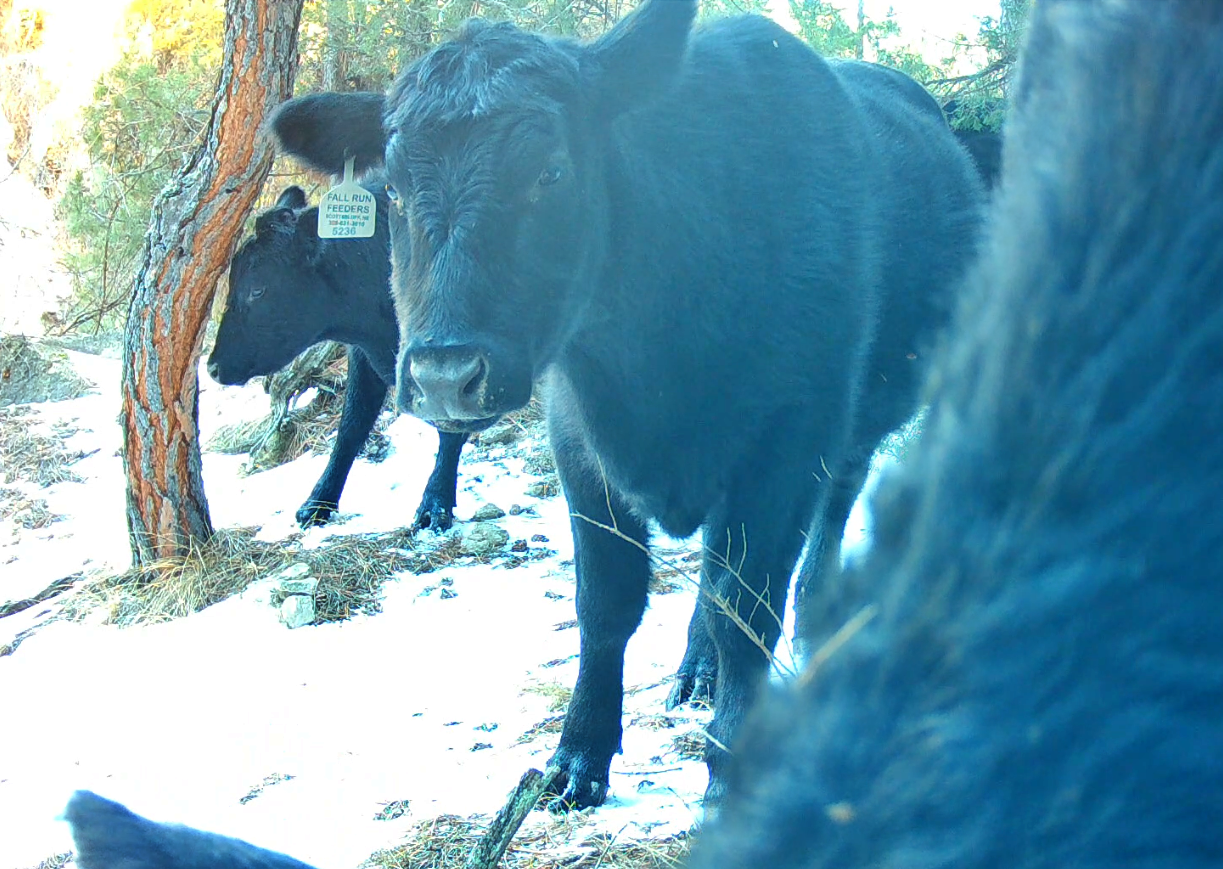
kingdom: Animalia
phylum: Chordata
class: Mammalia
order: Artiodactyla
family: Bovidae
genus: Bos
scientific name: Bos taurus
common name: Domesticated cattle
